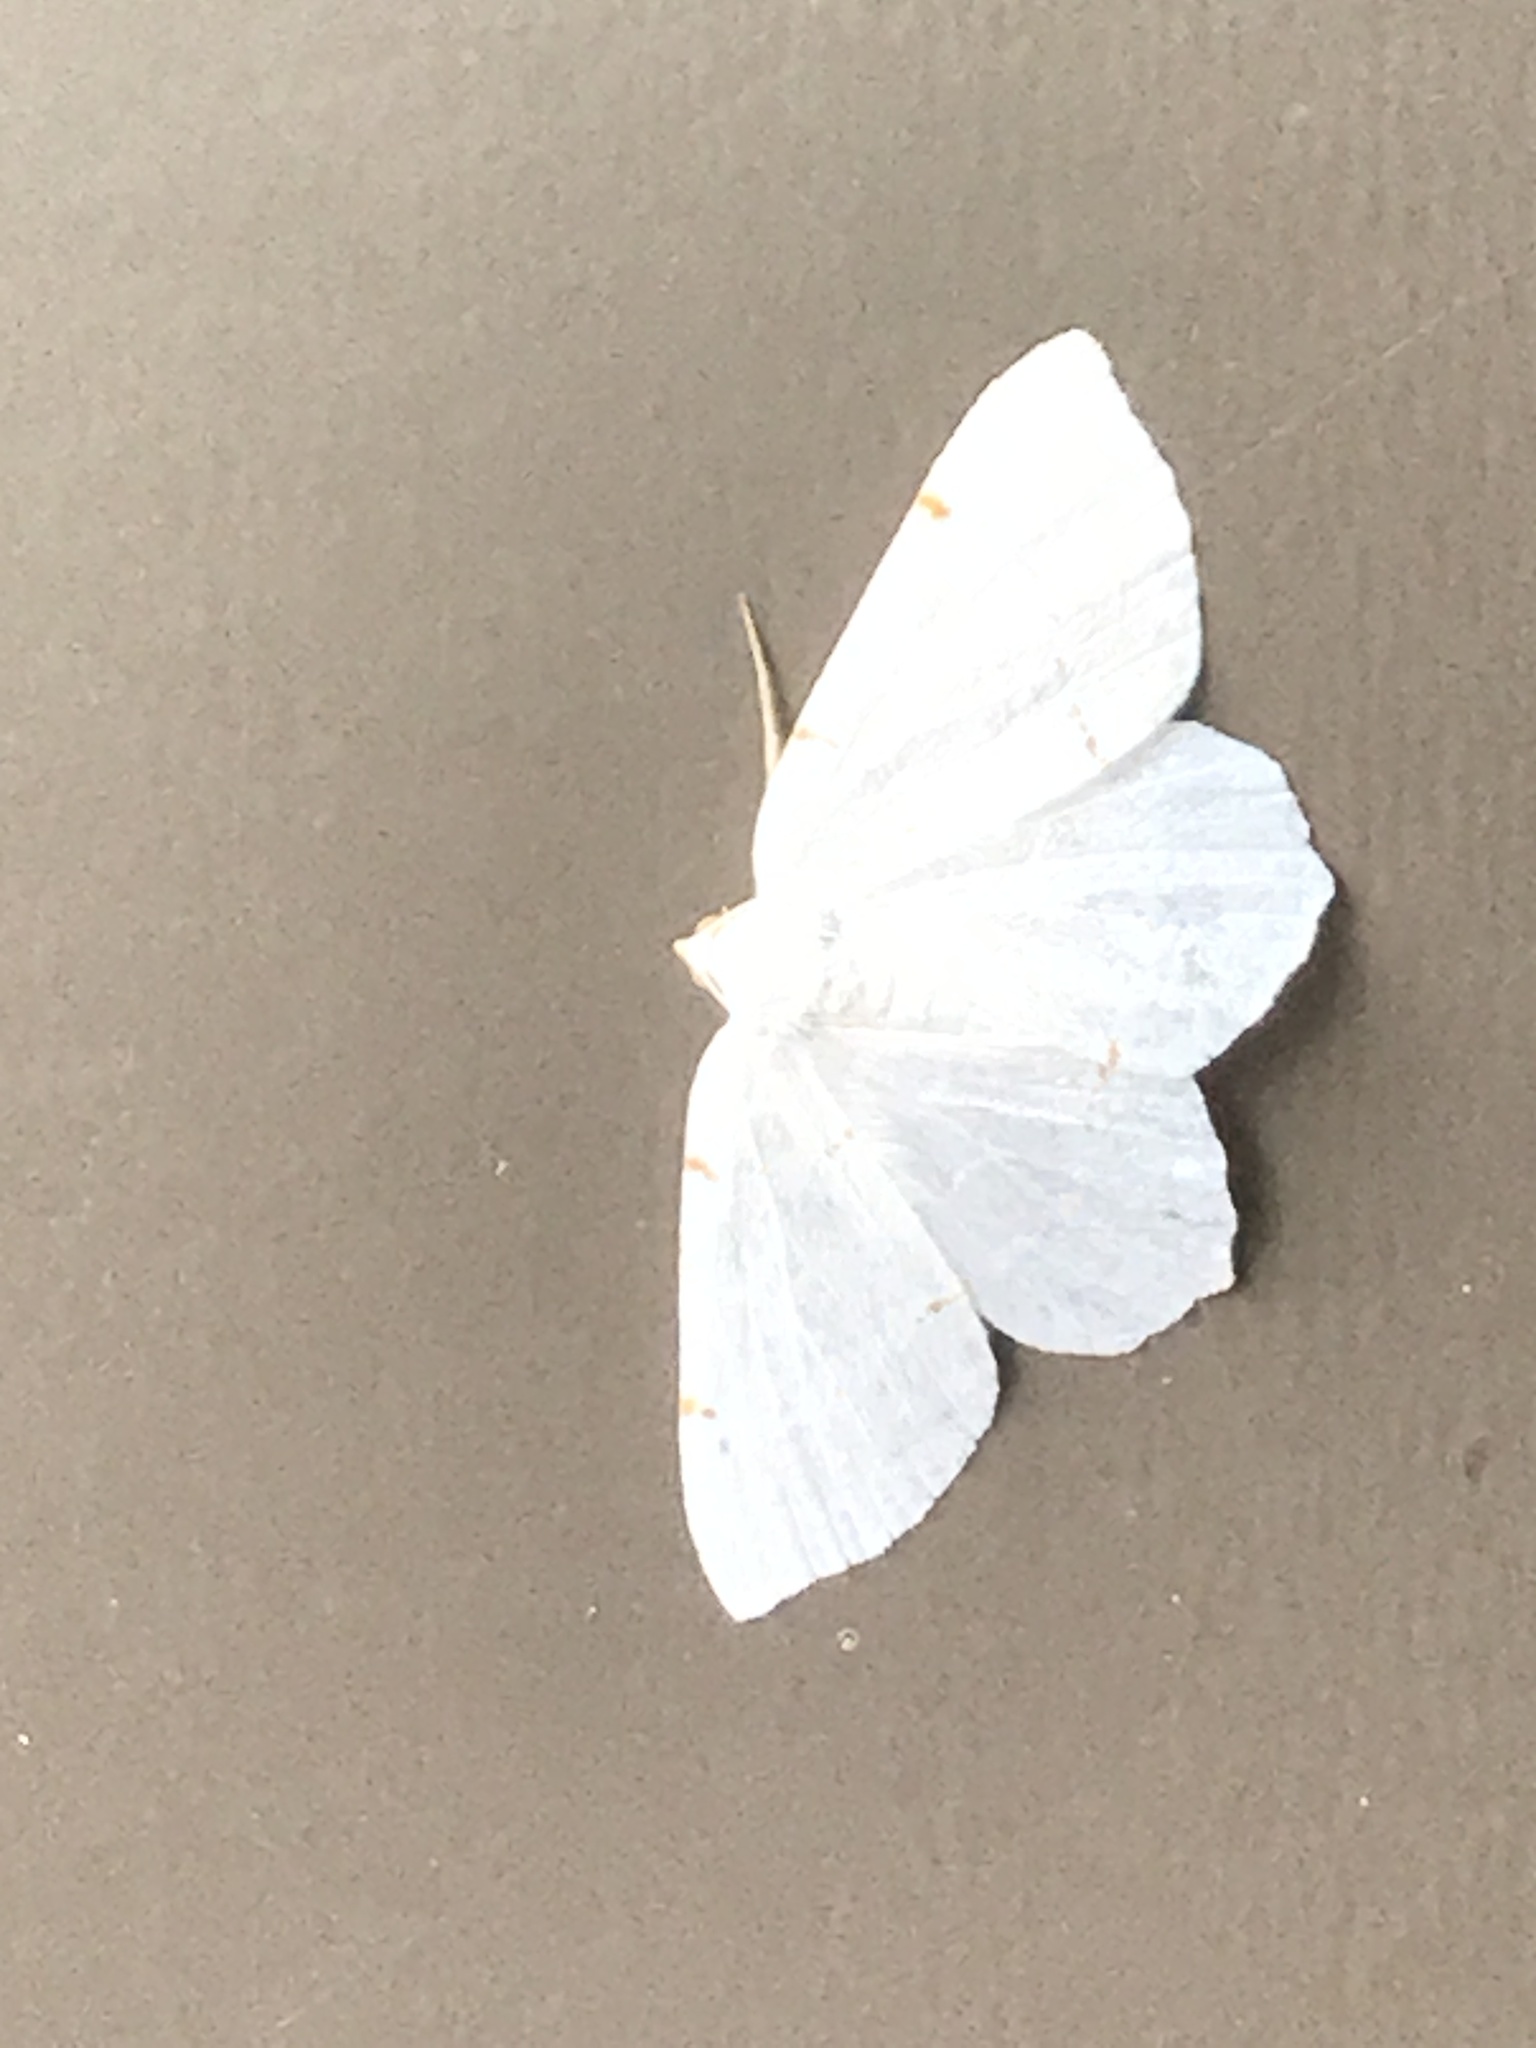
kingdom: Animalia
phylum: Arthropoda
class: Insecta
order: Lepidoptera
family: Geometridae
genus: Macaria
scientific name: Macaria pustularia
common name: Lesser maple spanworm moth
